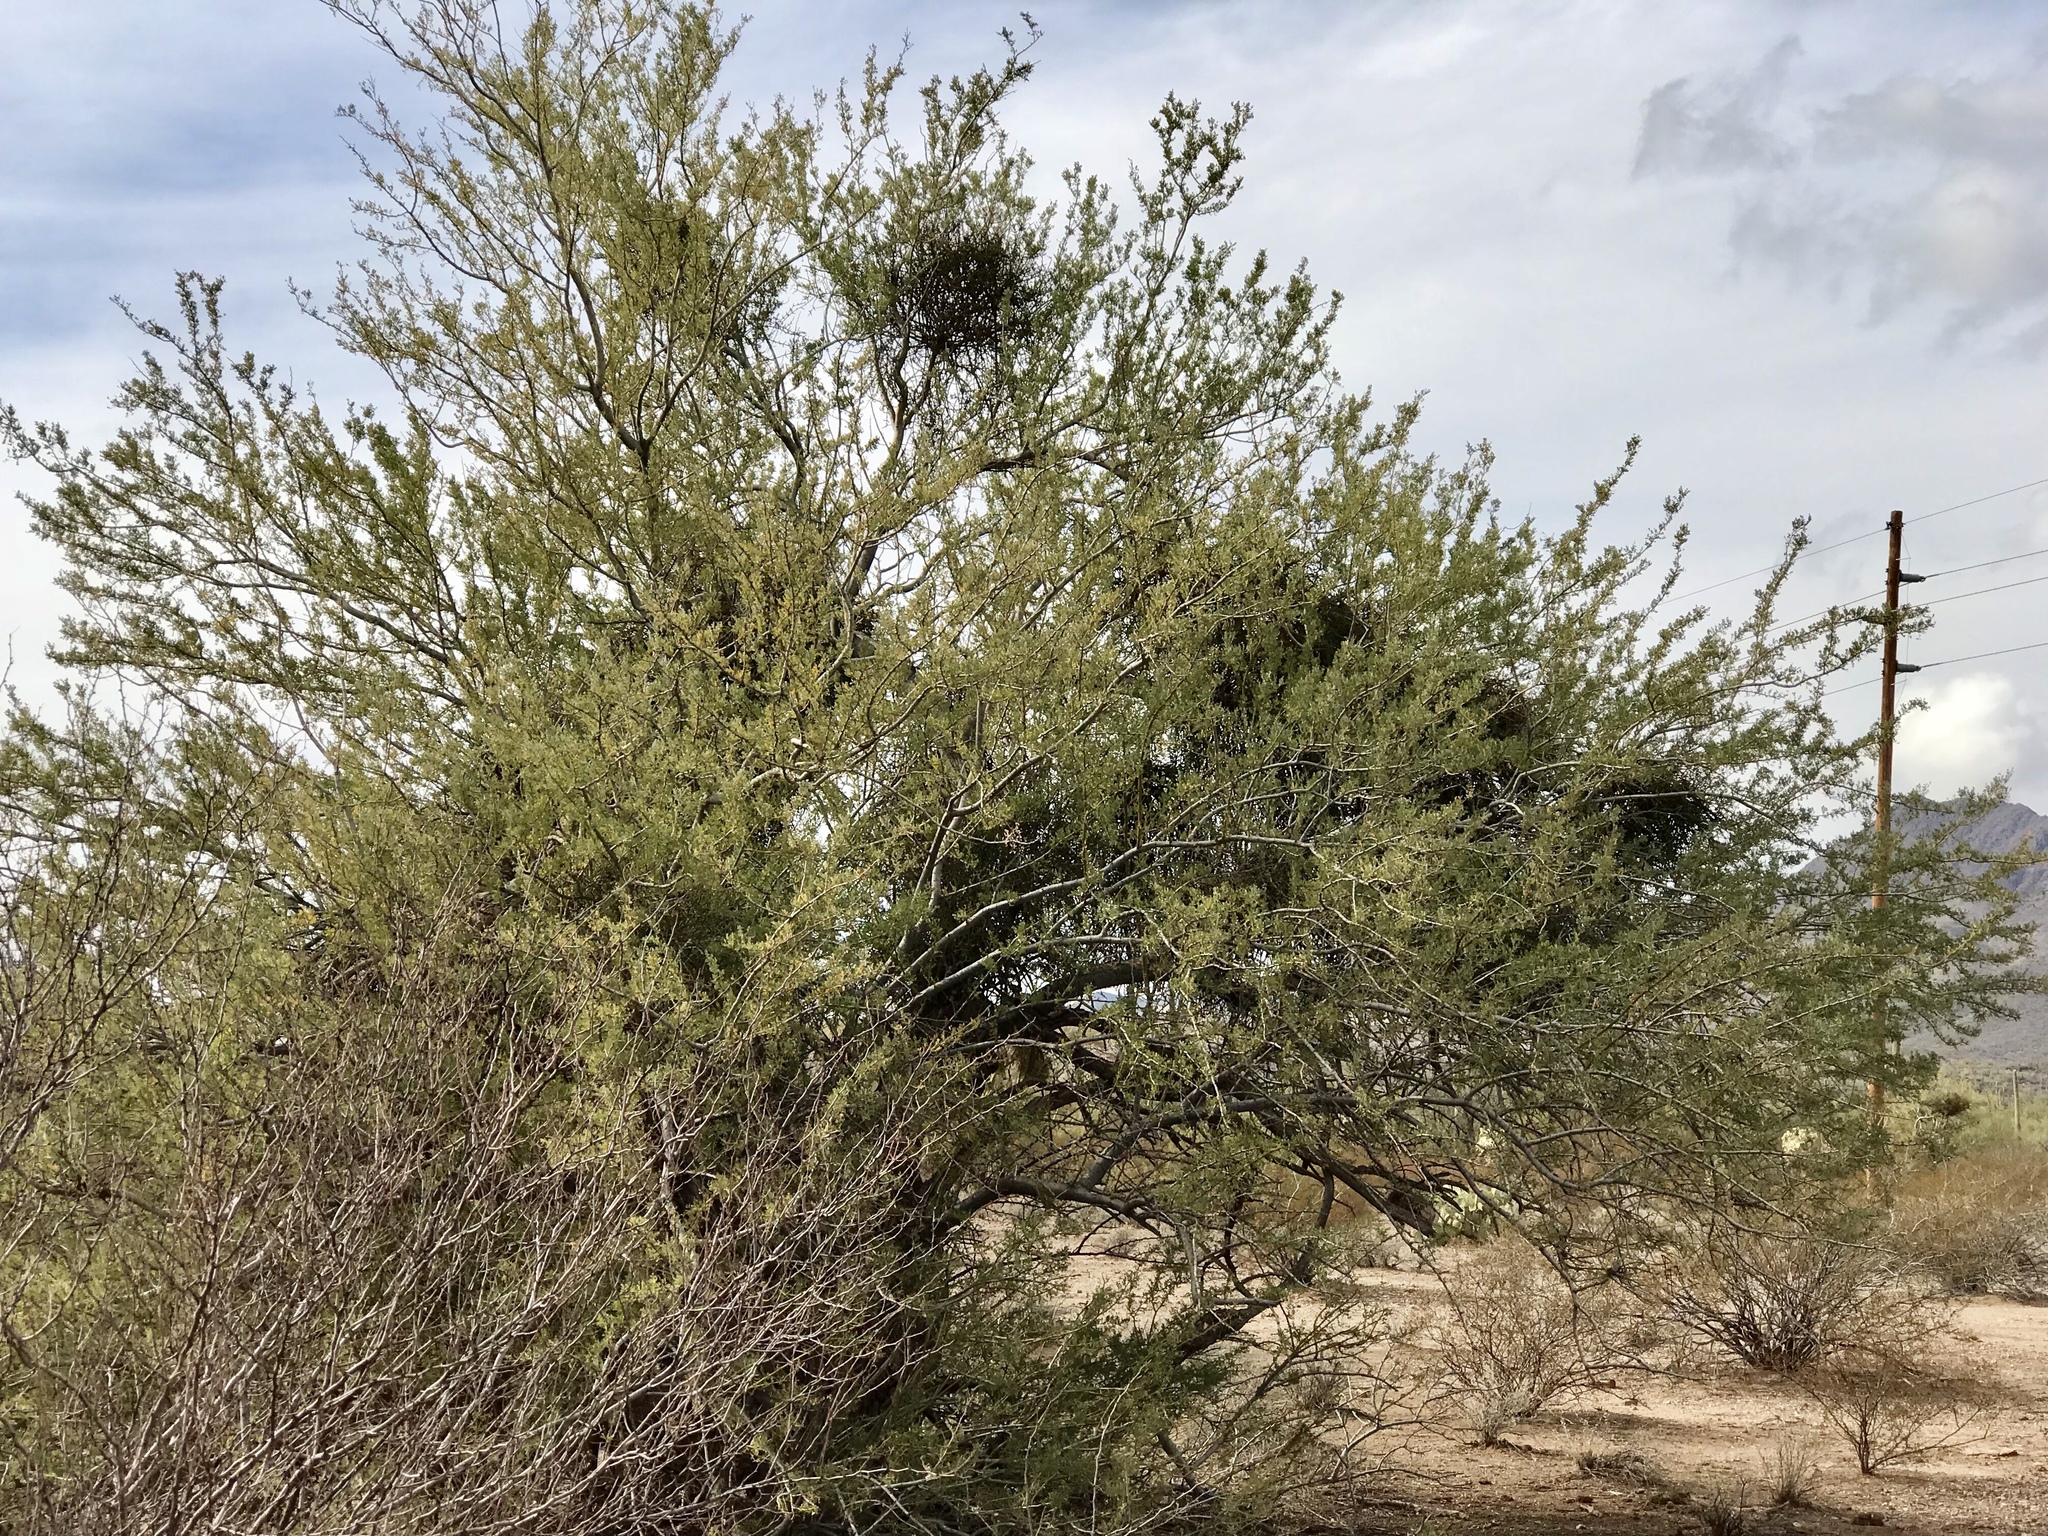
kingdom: Plantae
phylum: Tracheophyta
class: Magnoliopsida
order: Fabales
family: Fabaceae
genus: Olneya
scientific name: Olneya tesota
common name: Desert ironwood
